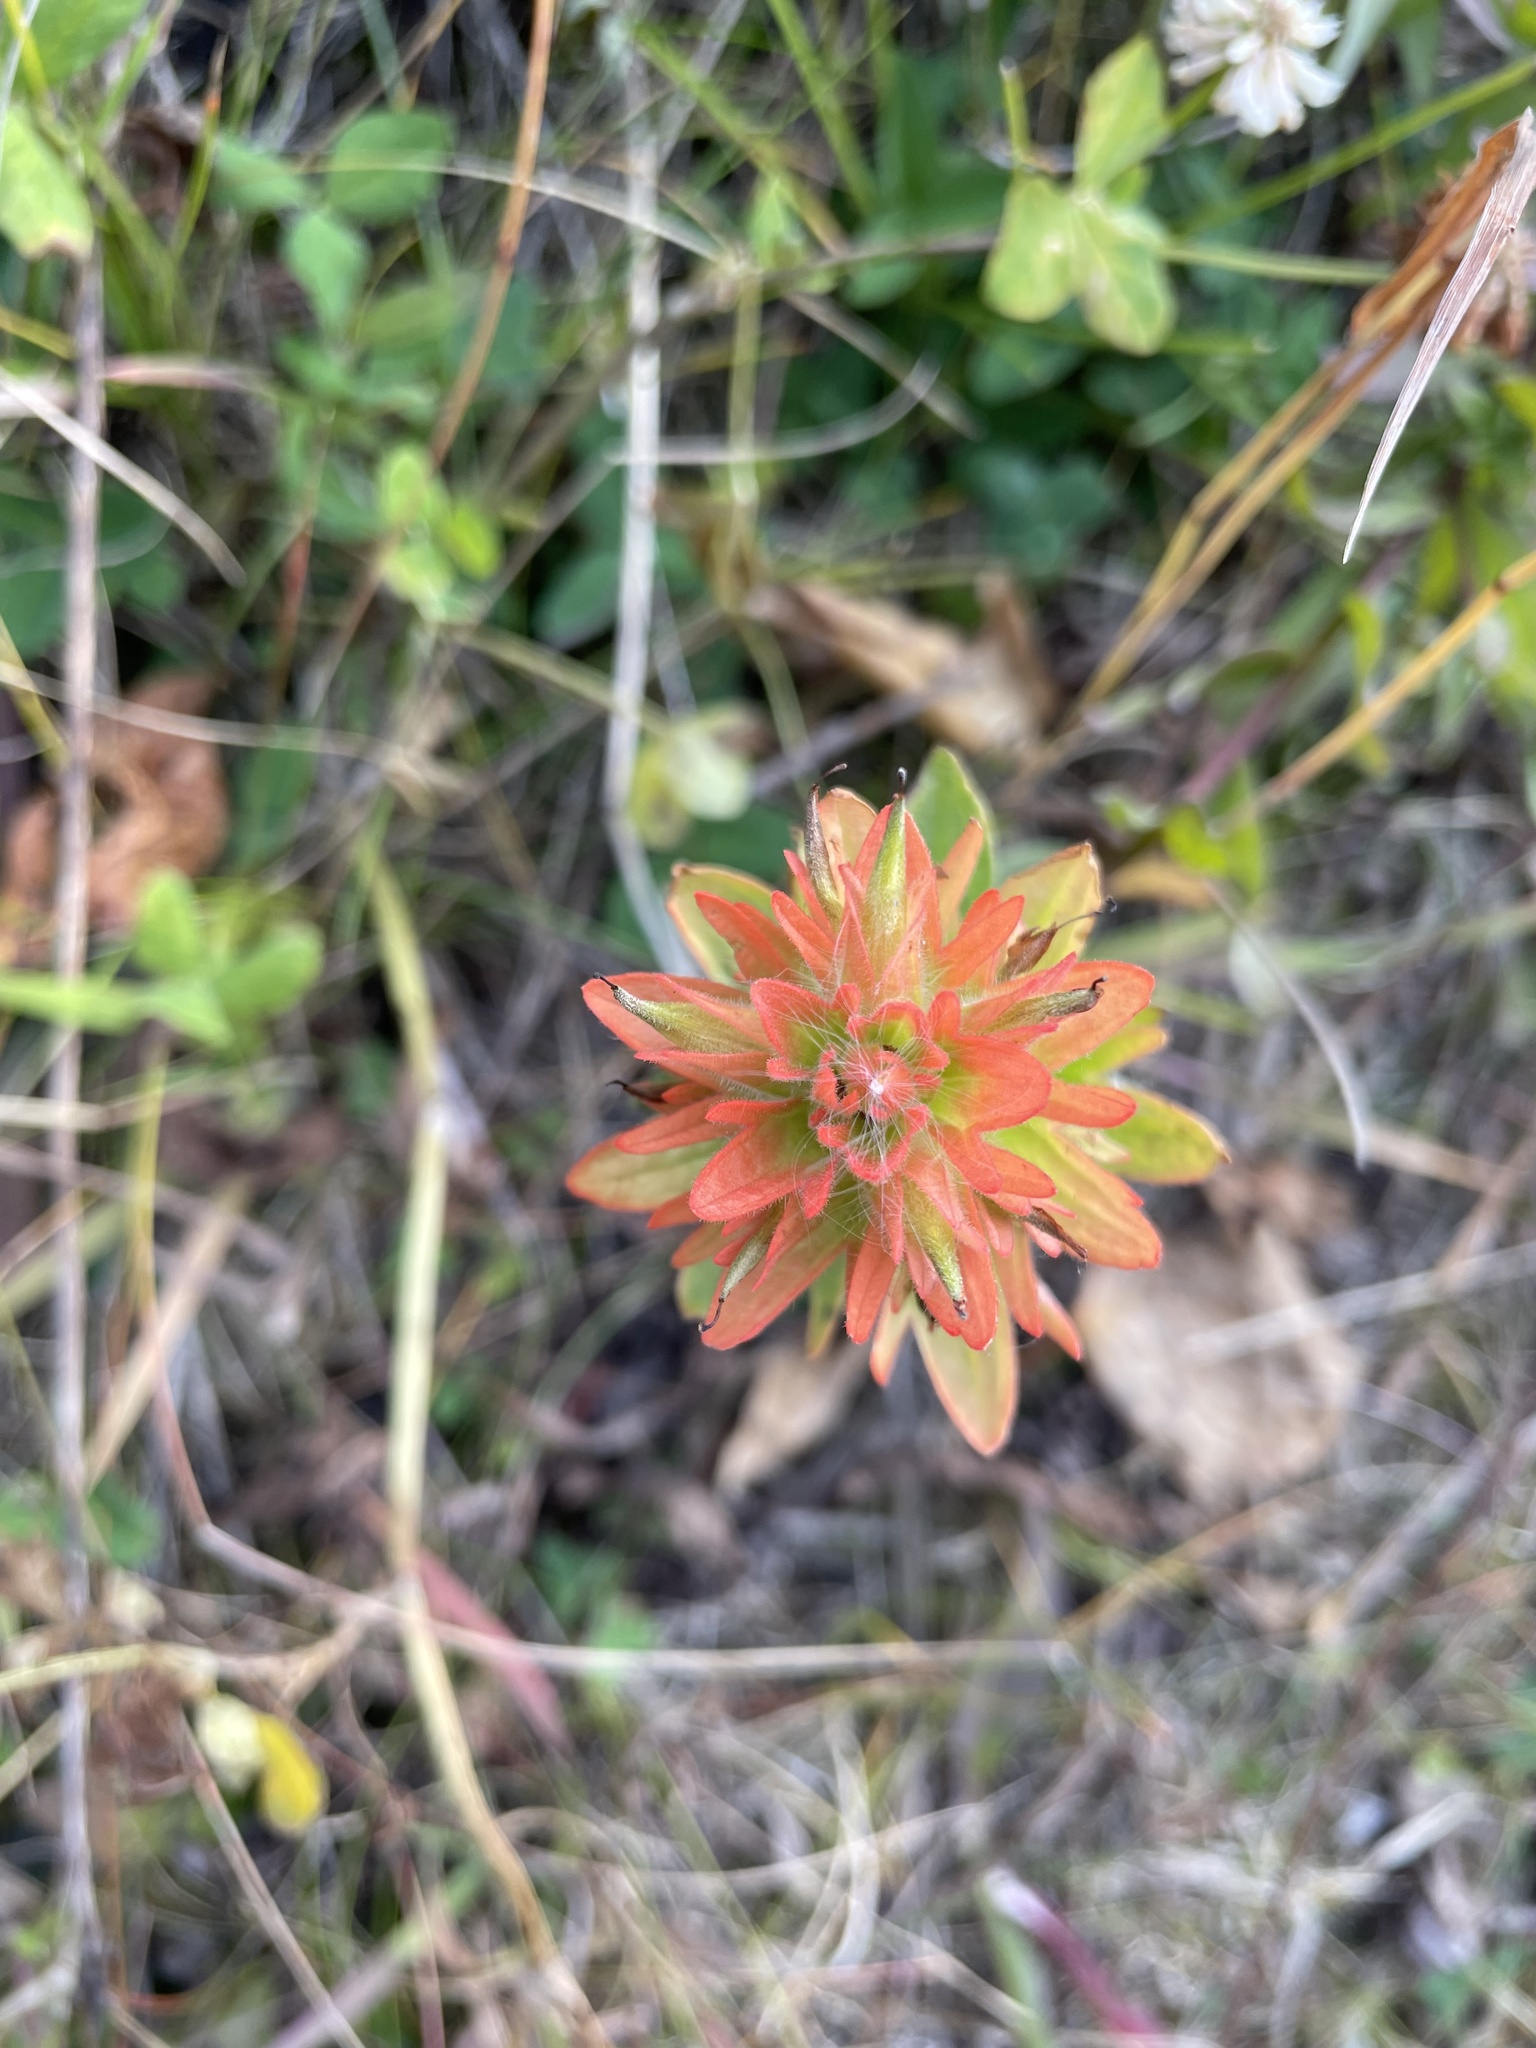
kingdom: Plantae
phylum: Tracheophyta
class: Magnoliopsida
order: Lamiales
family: Orobanchaceae
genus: Castilleja
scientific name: Castilleja miniata
